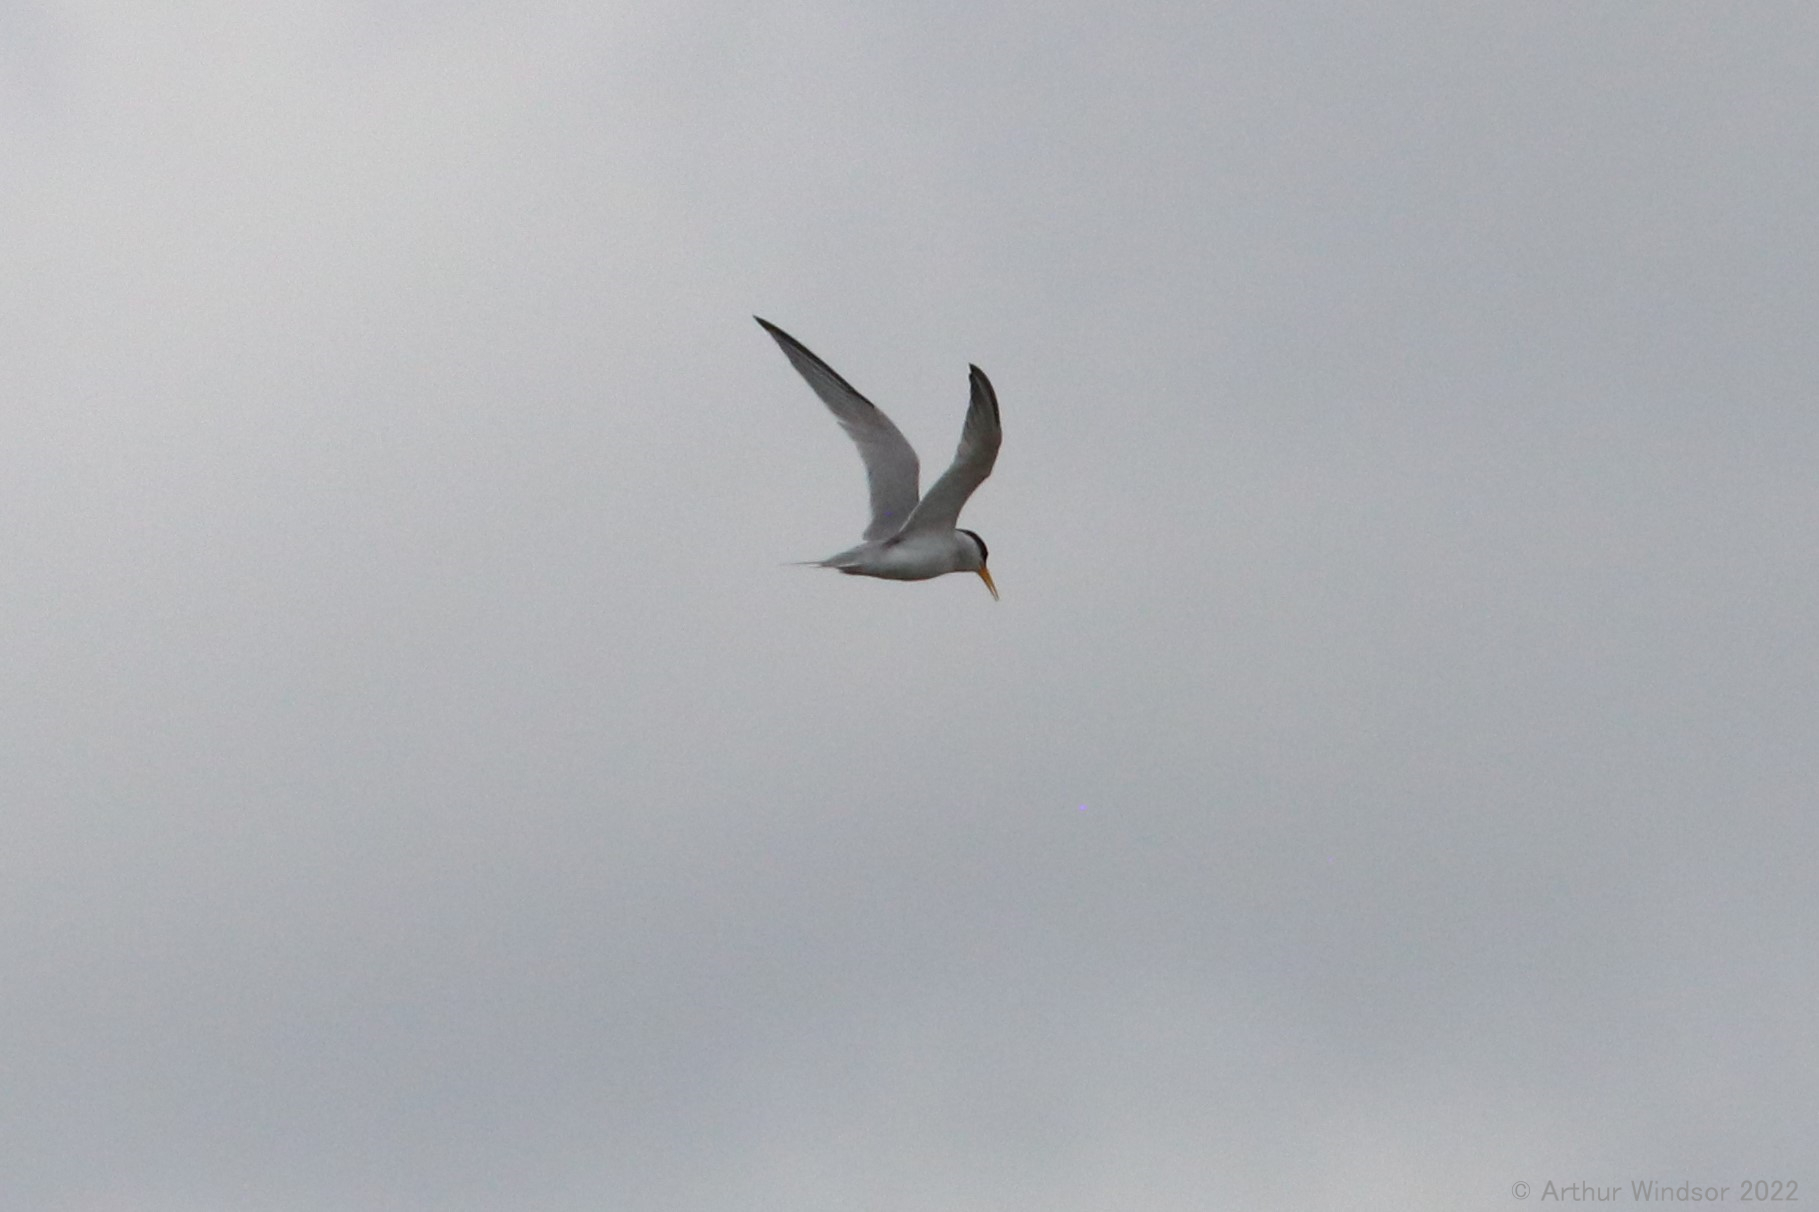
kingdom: Animalia
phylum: Chordata
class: Aves
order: Charadriiformes
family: Laridae
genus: Sternula
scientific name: Sternula antillarum
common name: Least tern
